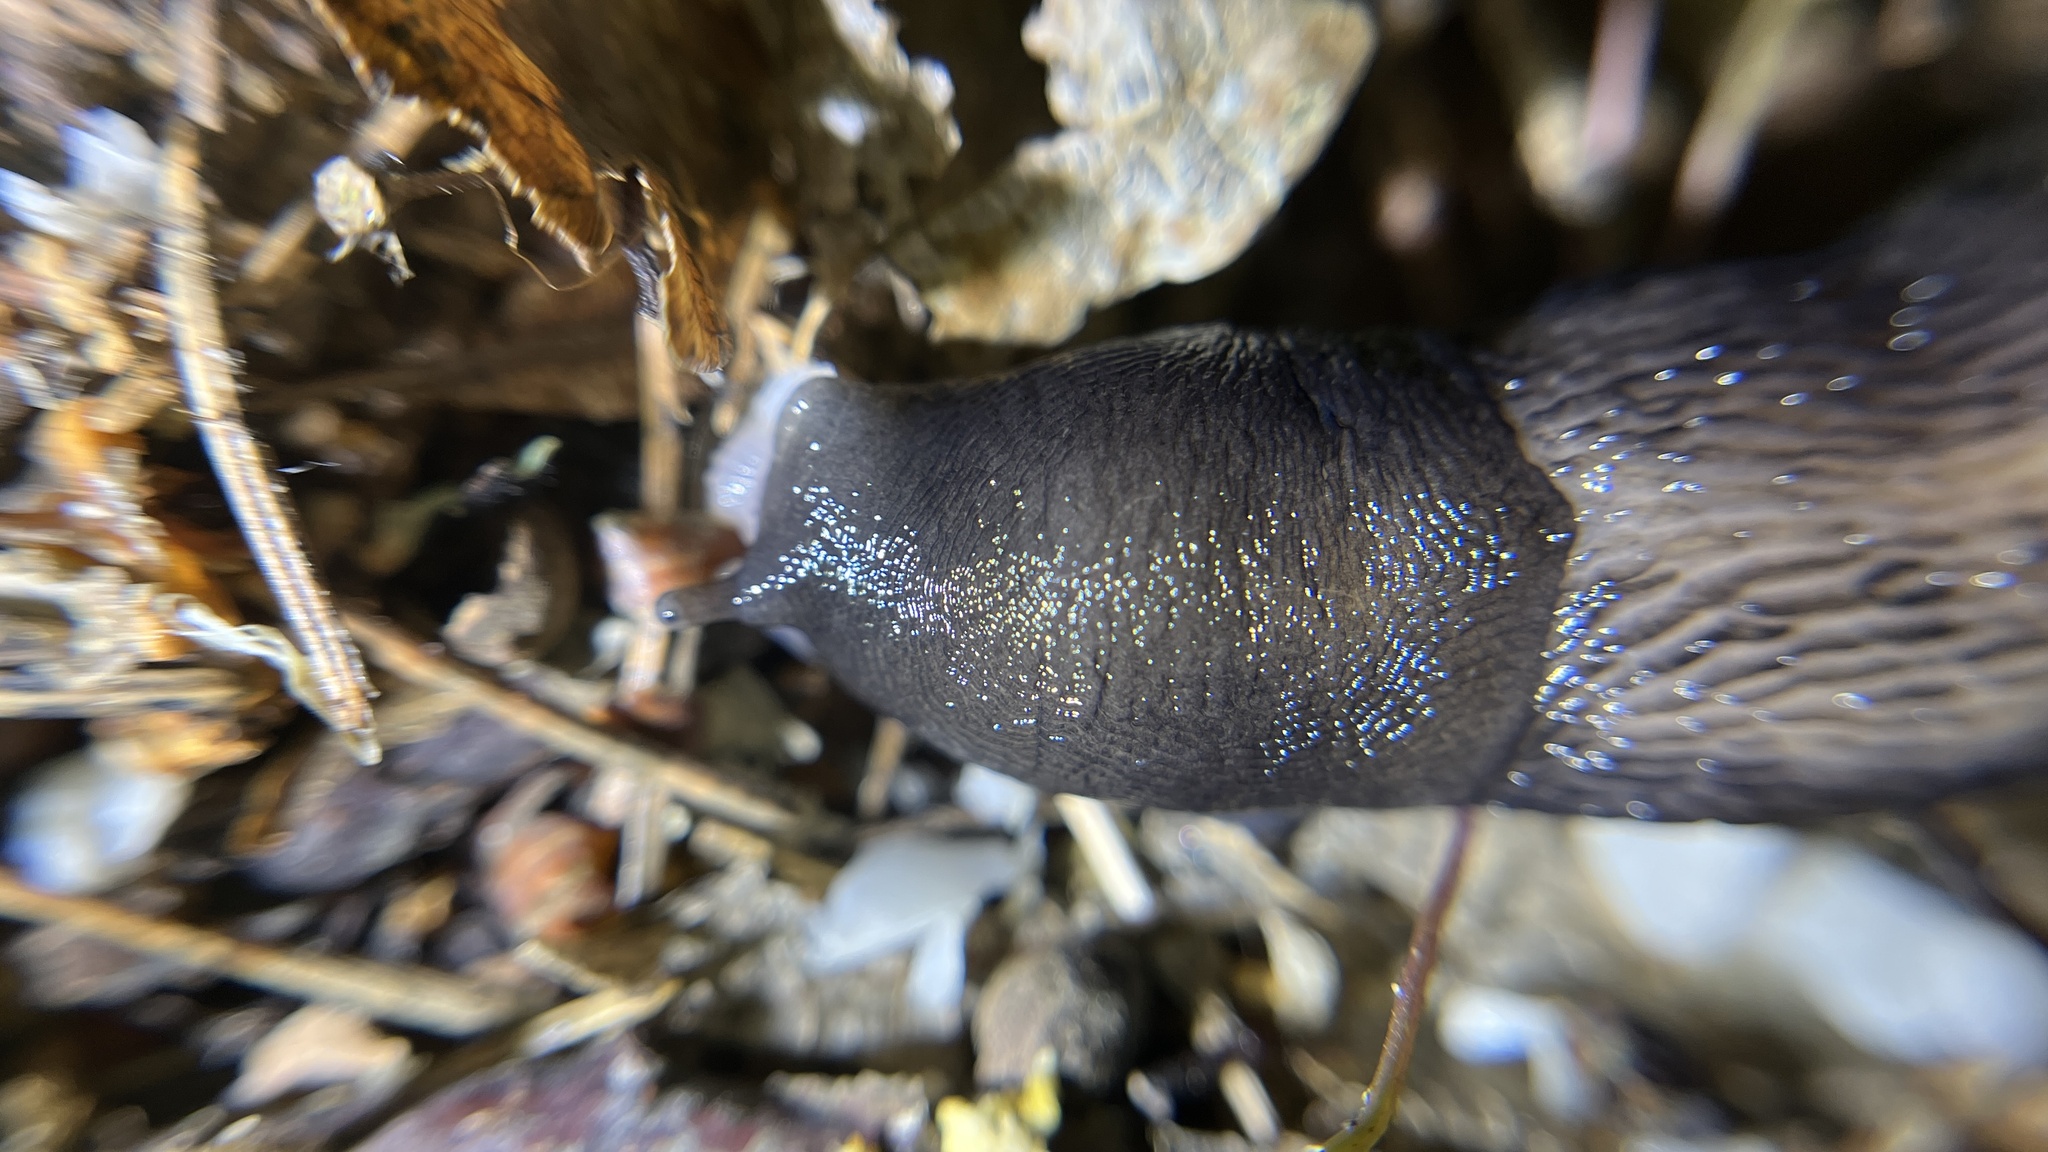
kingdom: Animalia
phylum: Mollusca
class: Gastropoda
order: Stylommatophora
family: Limacidae
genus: Limax
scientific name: Limax cinereoniger
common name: Ash-black slug
